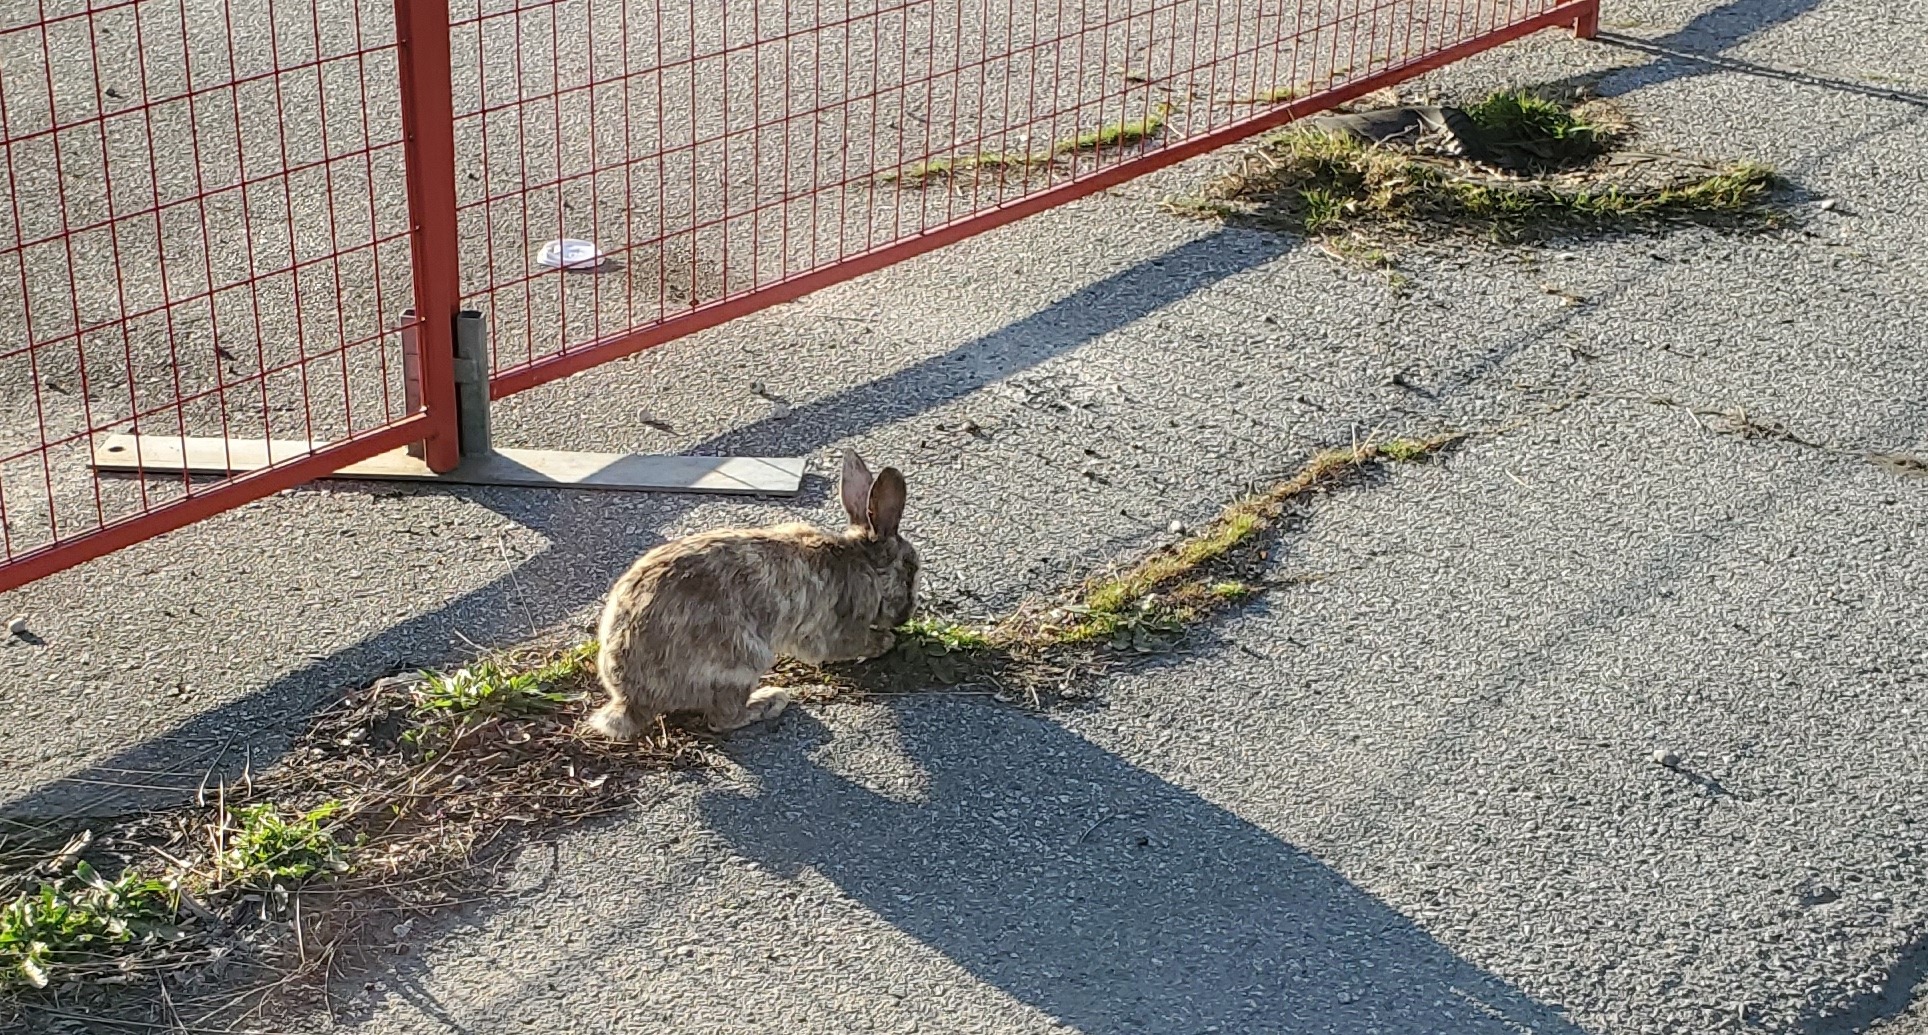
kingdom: Animalia
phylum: Chordata
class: Mammalia
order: Lagomorpha
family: Leporidae
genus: Oryctolagus
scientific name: Oryctolagus cuniculus
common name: European rabbit
